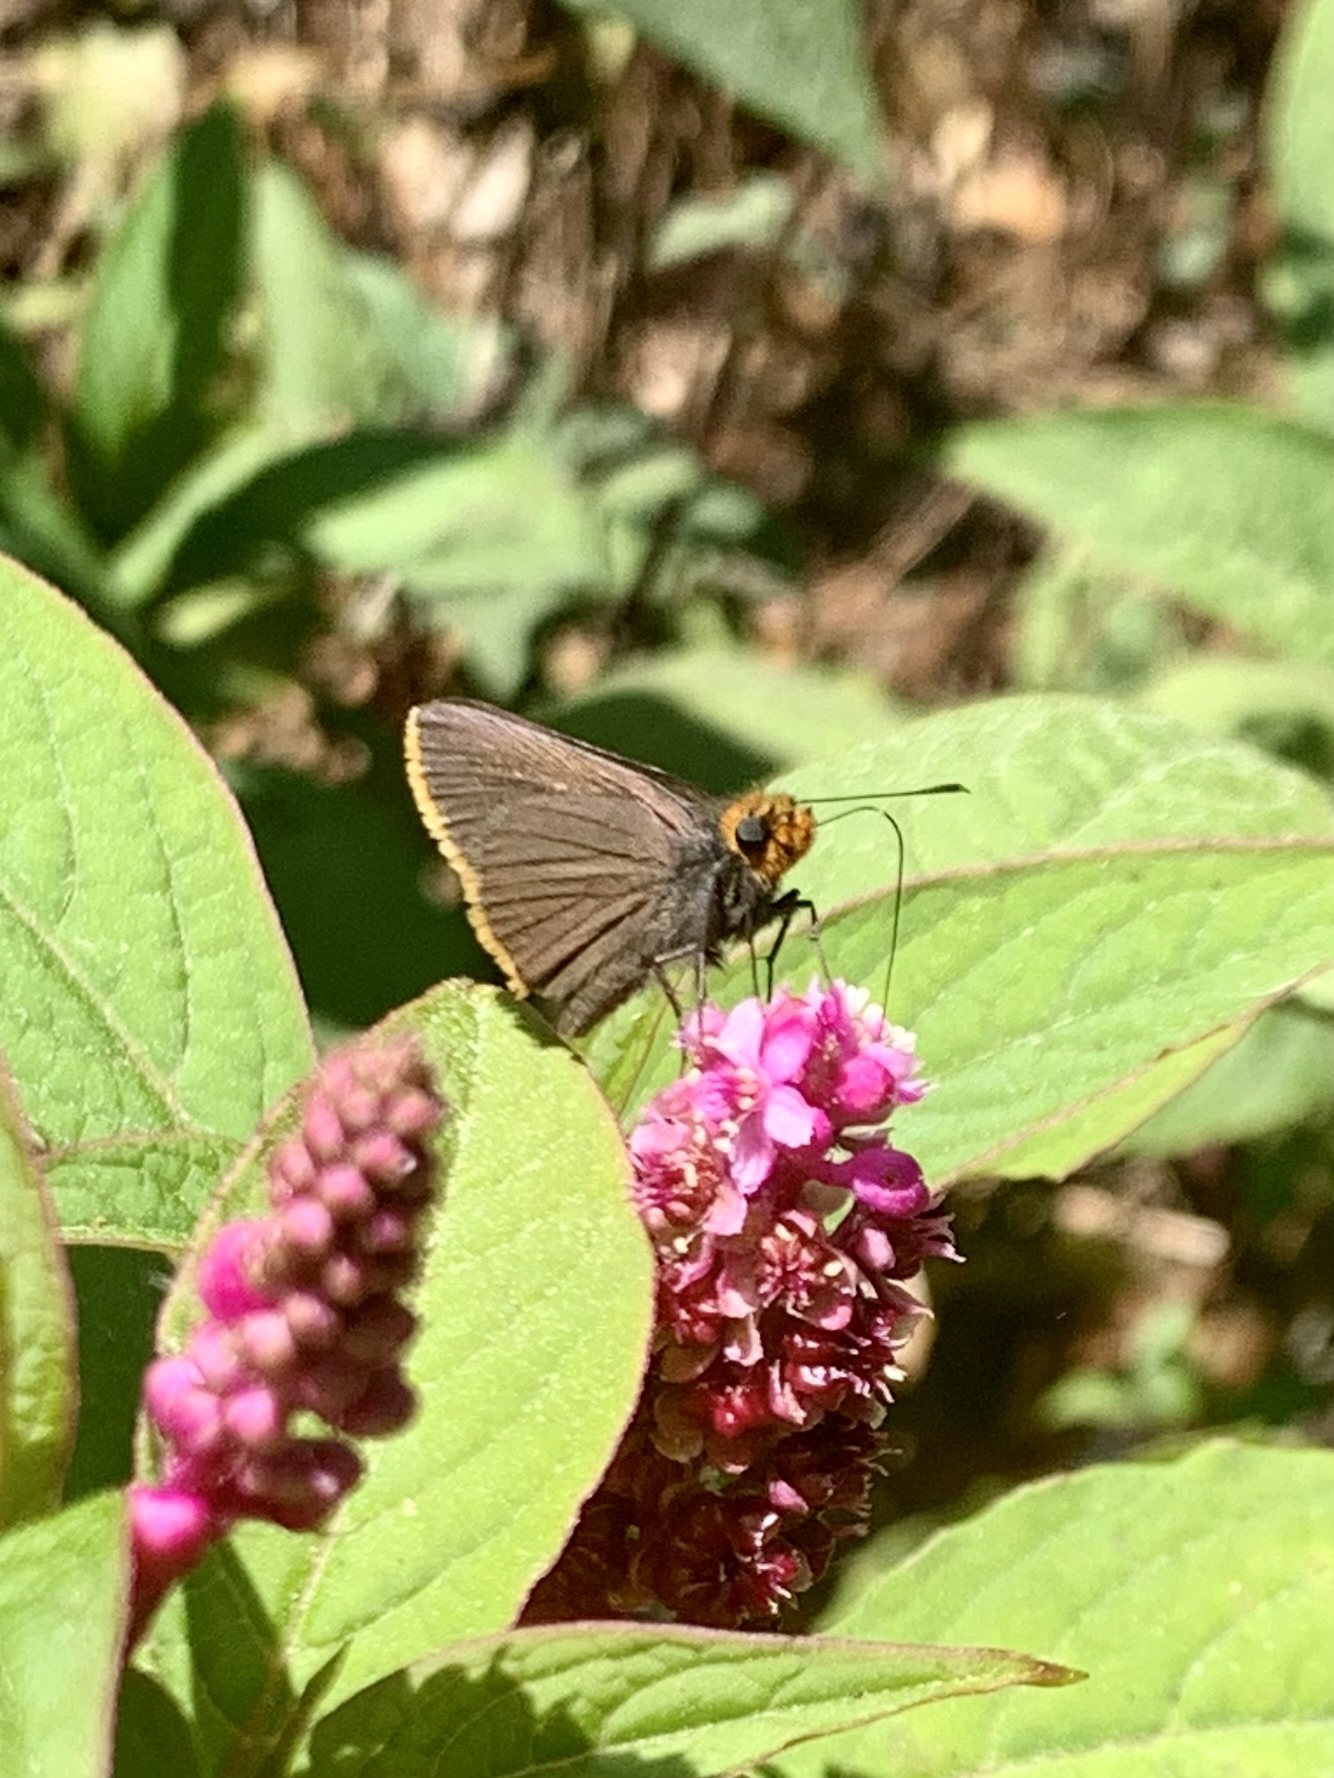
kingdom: Animalia
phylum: Arthropoda
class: Insecta
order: Lepidoptera
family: Hesperiidae
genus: Mastor
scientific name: Mastor fimbriata
